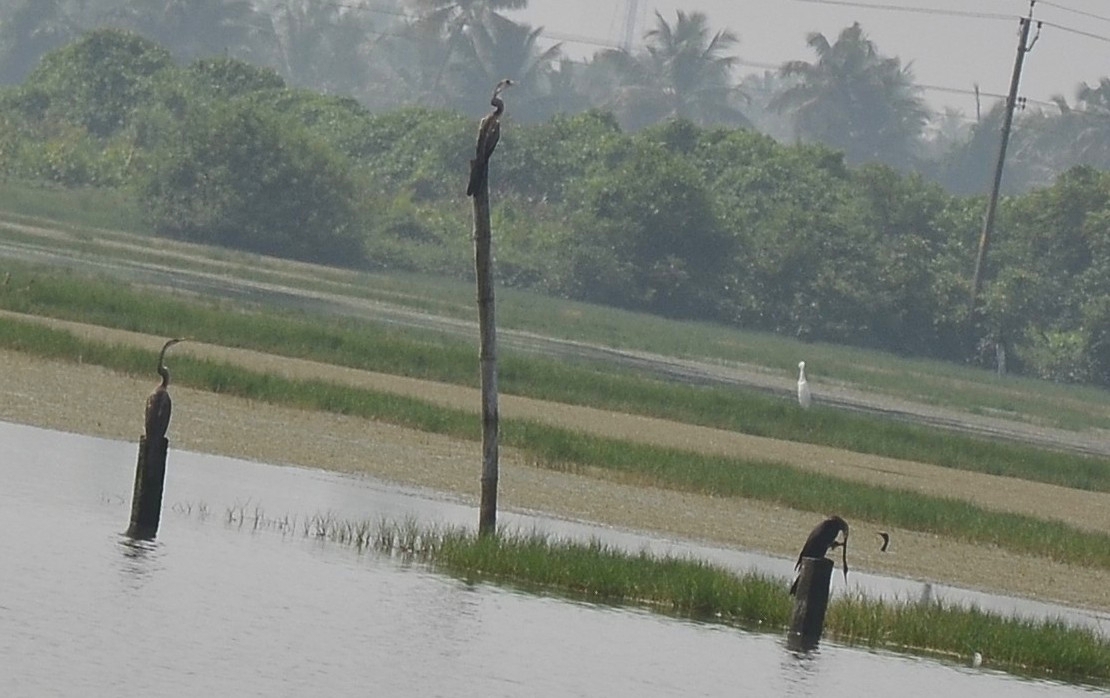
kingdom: Animalia
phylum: Chordata
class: Aves
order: Suliformes
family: Anhingidae
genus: Anhinga
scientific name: Anhinga melanogaster
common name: Oriental darter
